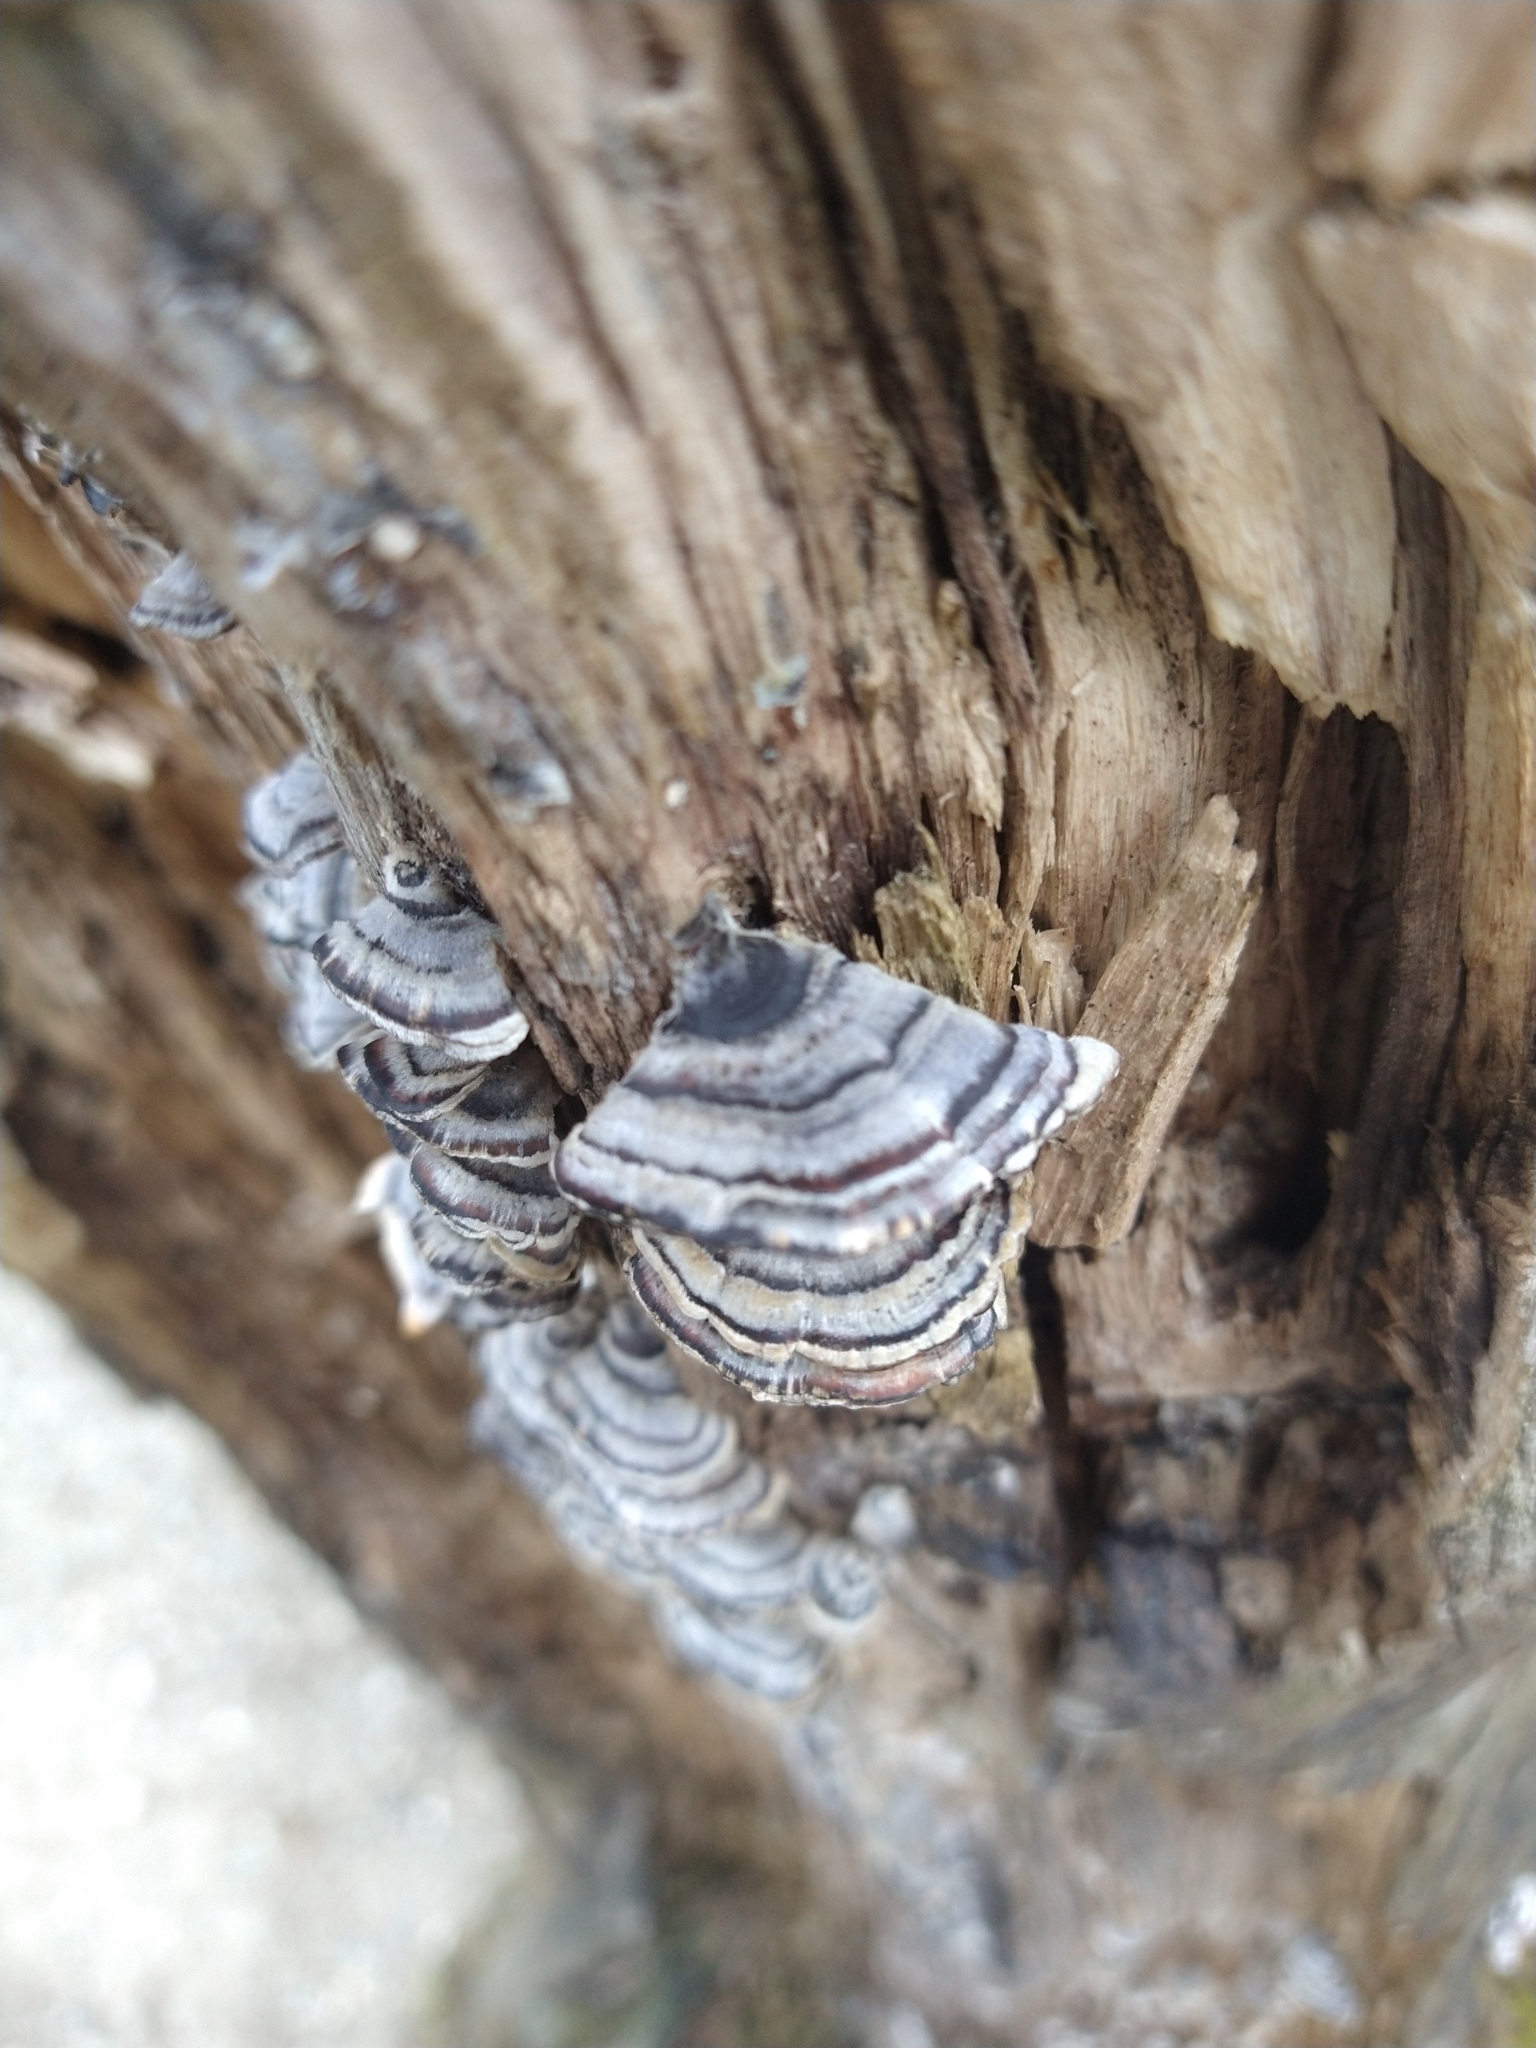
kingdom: Fungi
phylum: Basidiomycota
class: Agaricomycetes
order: Polyporales
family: Polyporaceae
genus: Trametes
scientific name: Trametes versicolor
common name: Turkeytail
